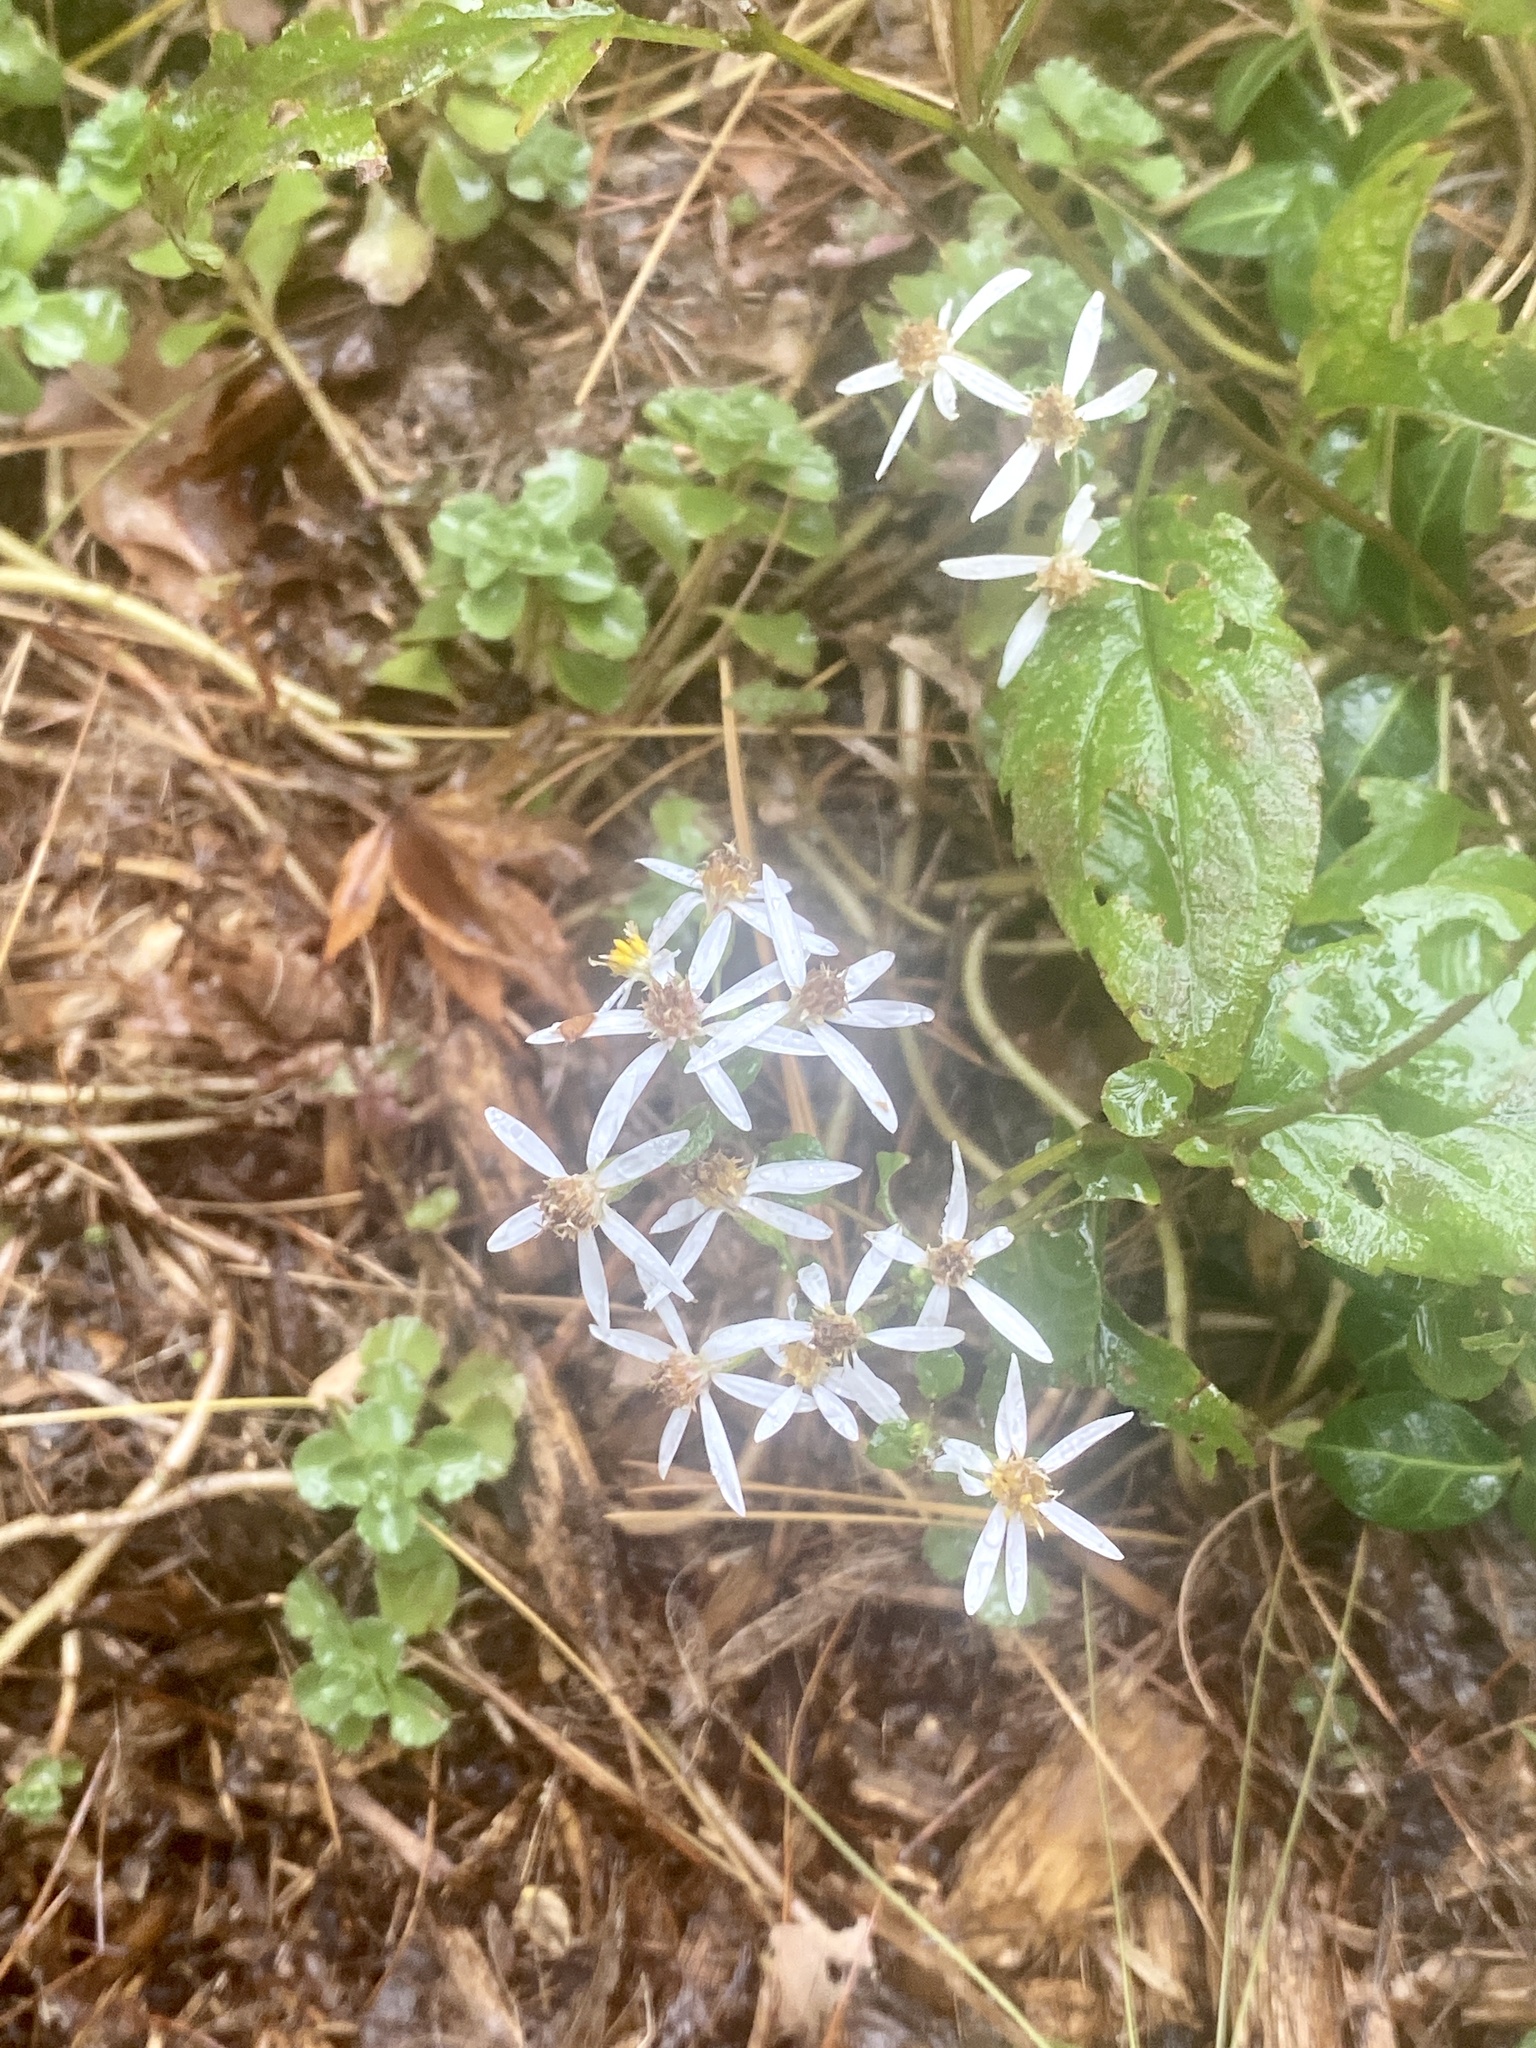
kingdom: Plantae
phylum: Tracheophyta
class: Magnoliopsida
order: Asterales
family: Asteraceae
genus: Eurybia
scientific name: Eurybia divaricata
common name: White wood aster
